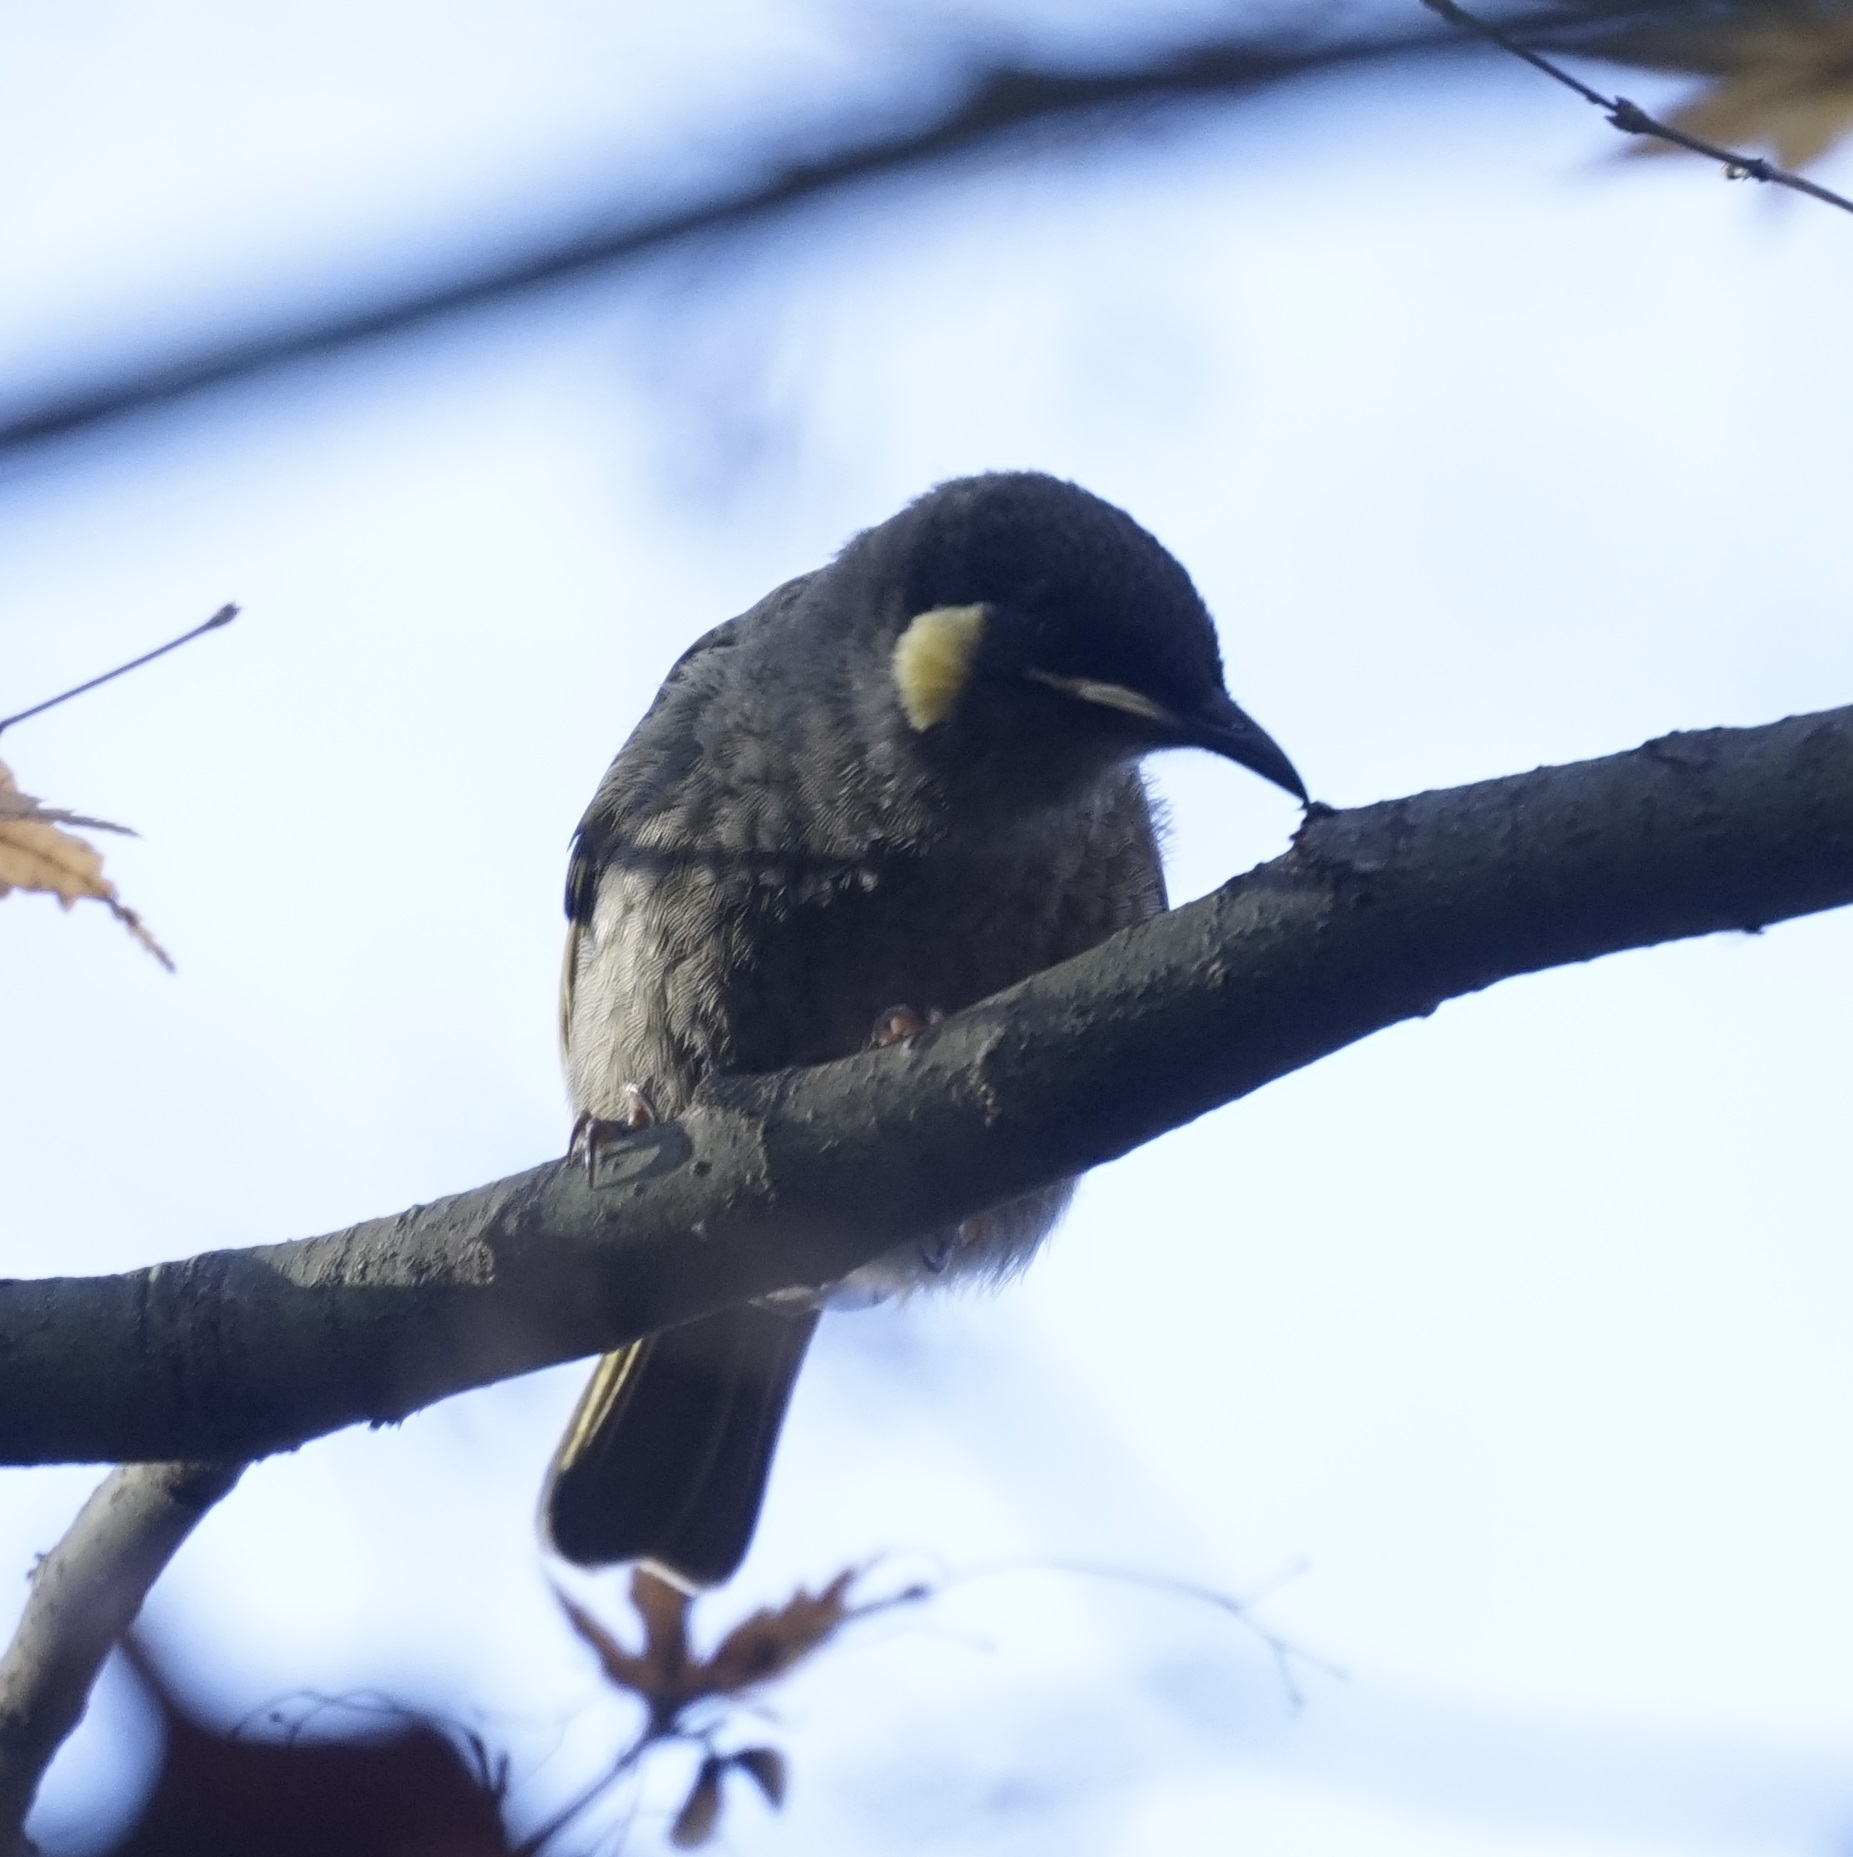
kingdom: Animalia
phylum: Chordata
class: Aves
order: Passeriformes
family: Meliphagidae
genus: Meliphaga
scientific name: Meliphaga lewinii
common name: Lewin's honeyeater
